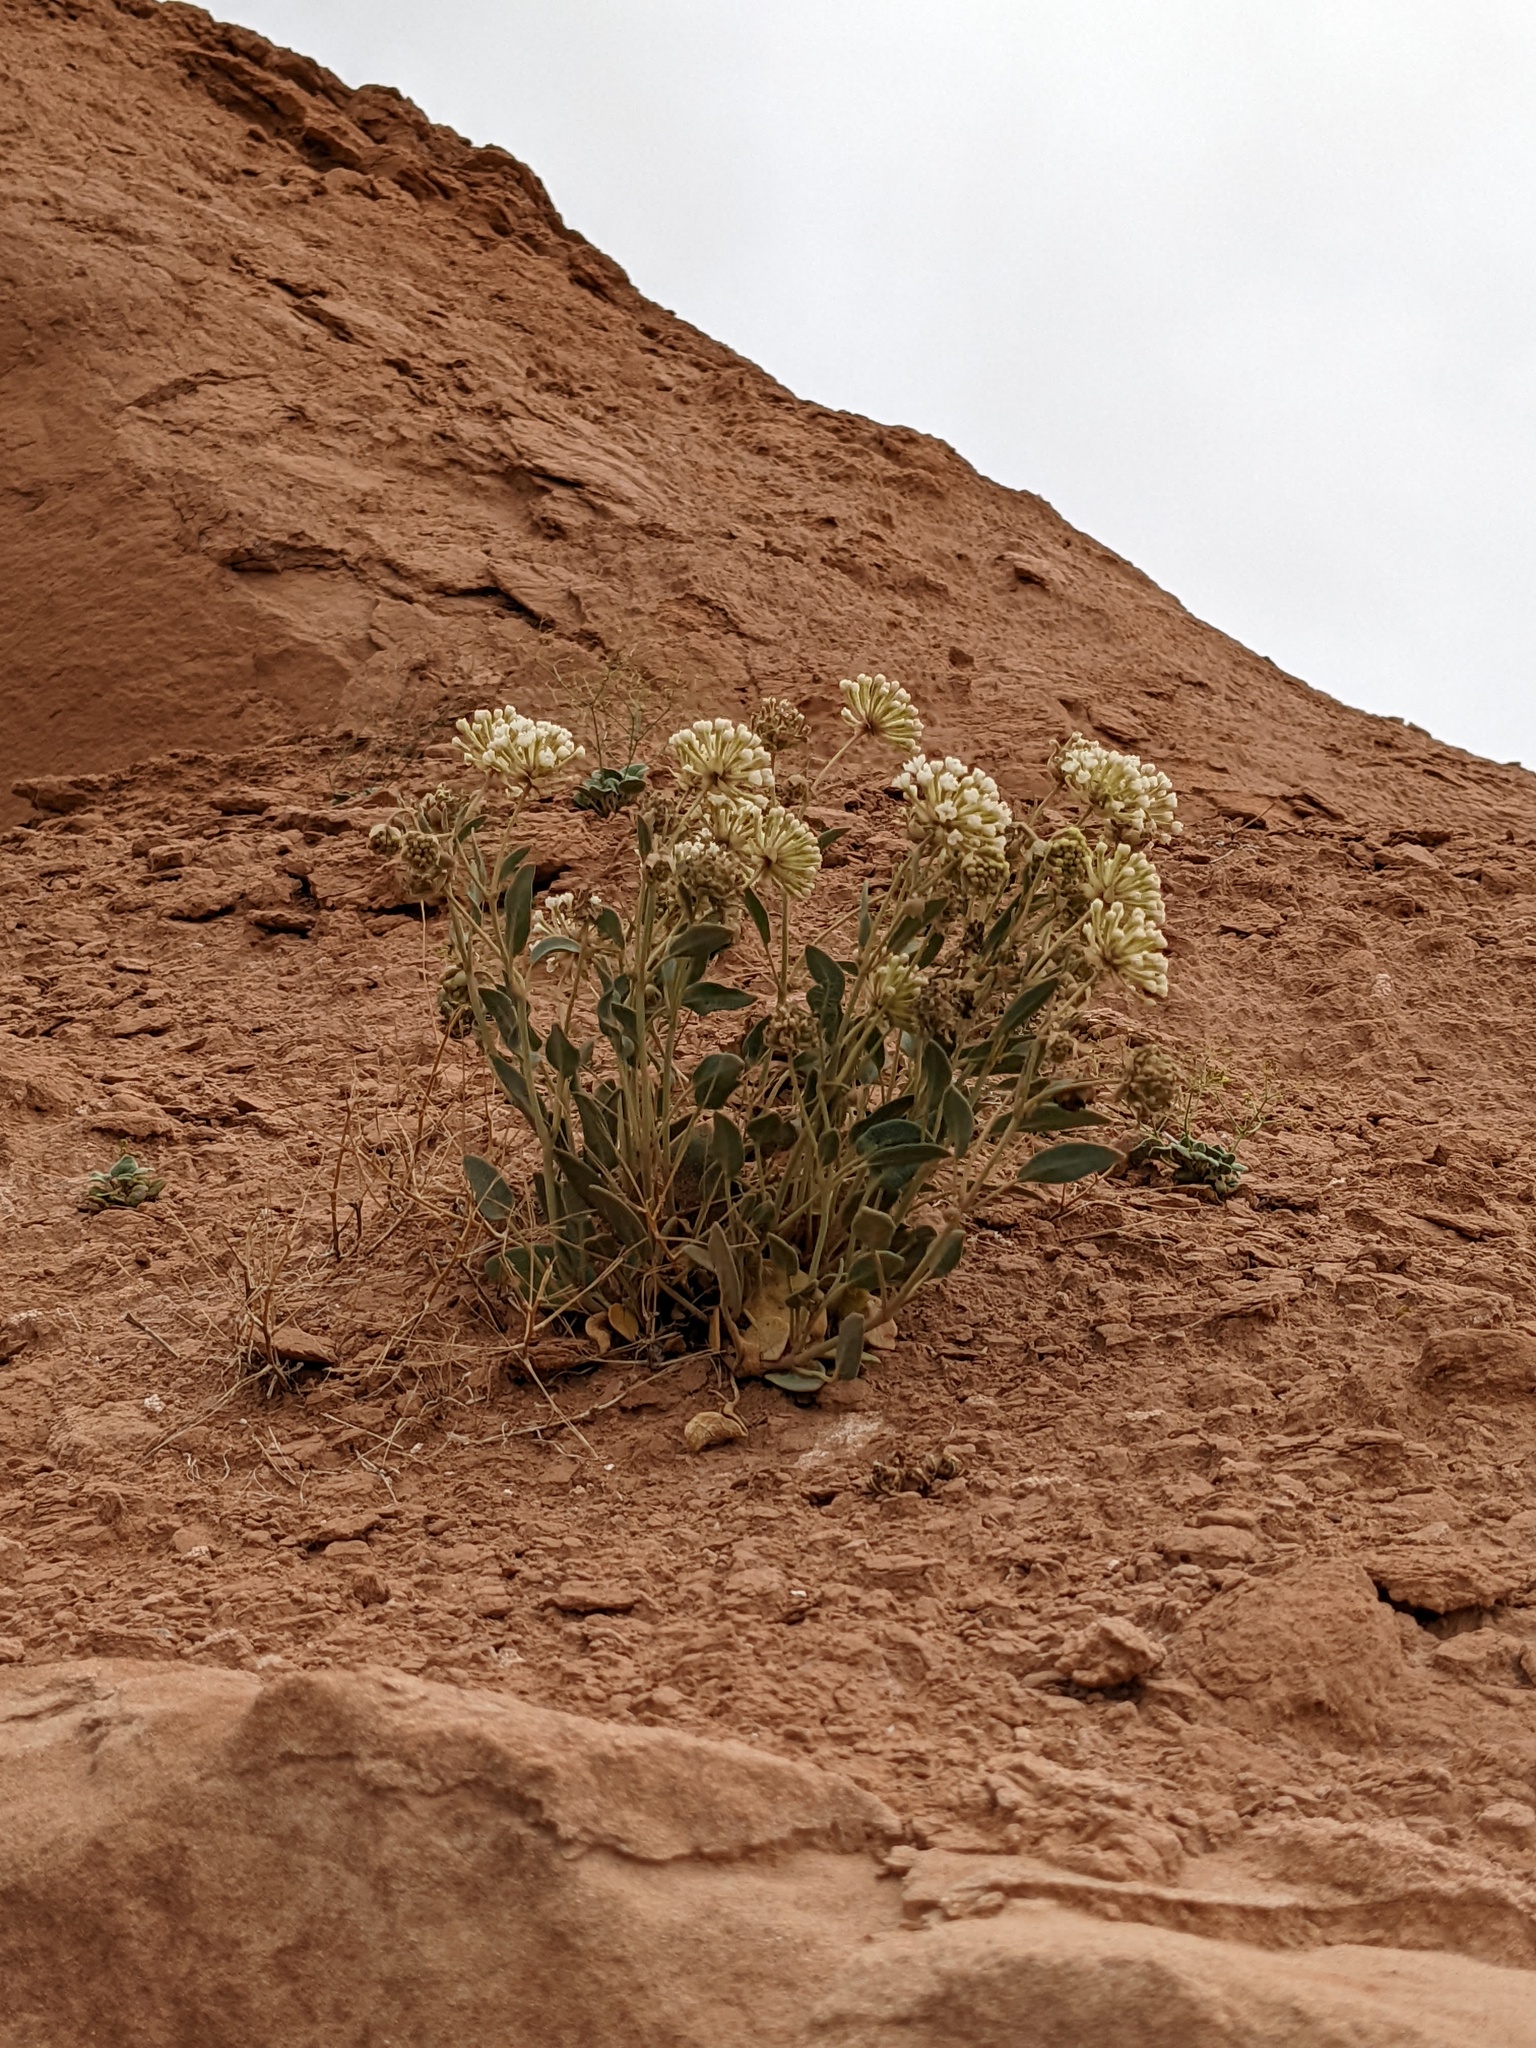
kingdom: Plantae
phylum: Tracheophyta
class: Magnoliopsida
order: Caryophyllales
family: Nyctaginaceae
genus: Abronia
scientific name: Abronia elliptica
